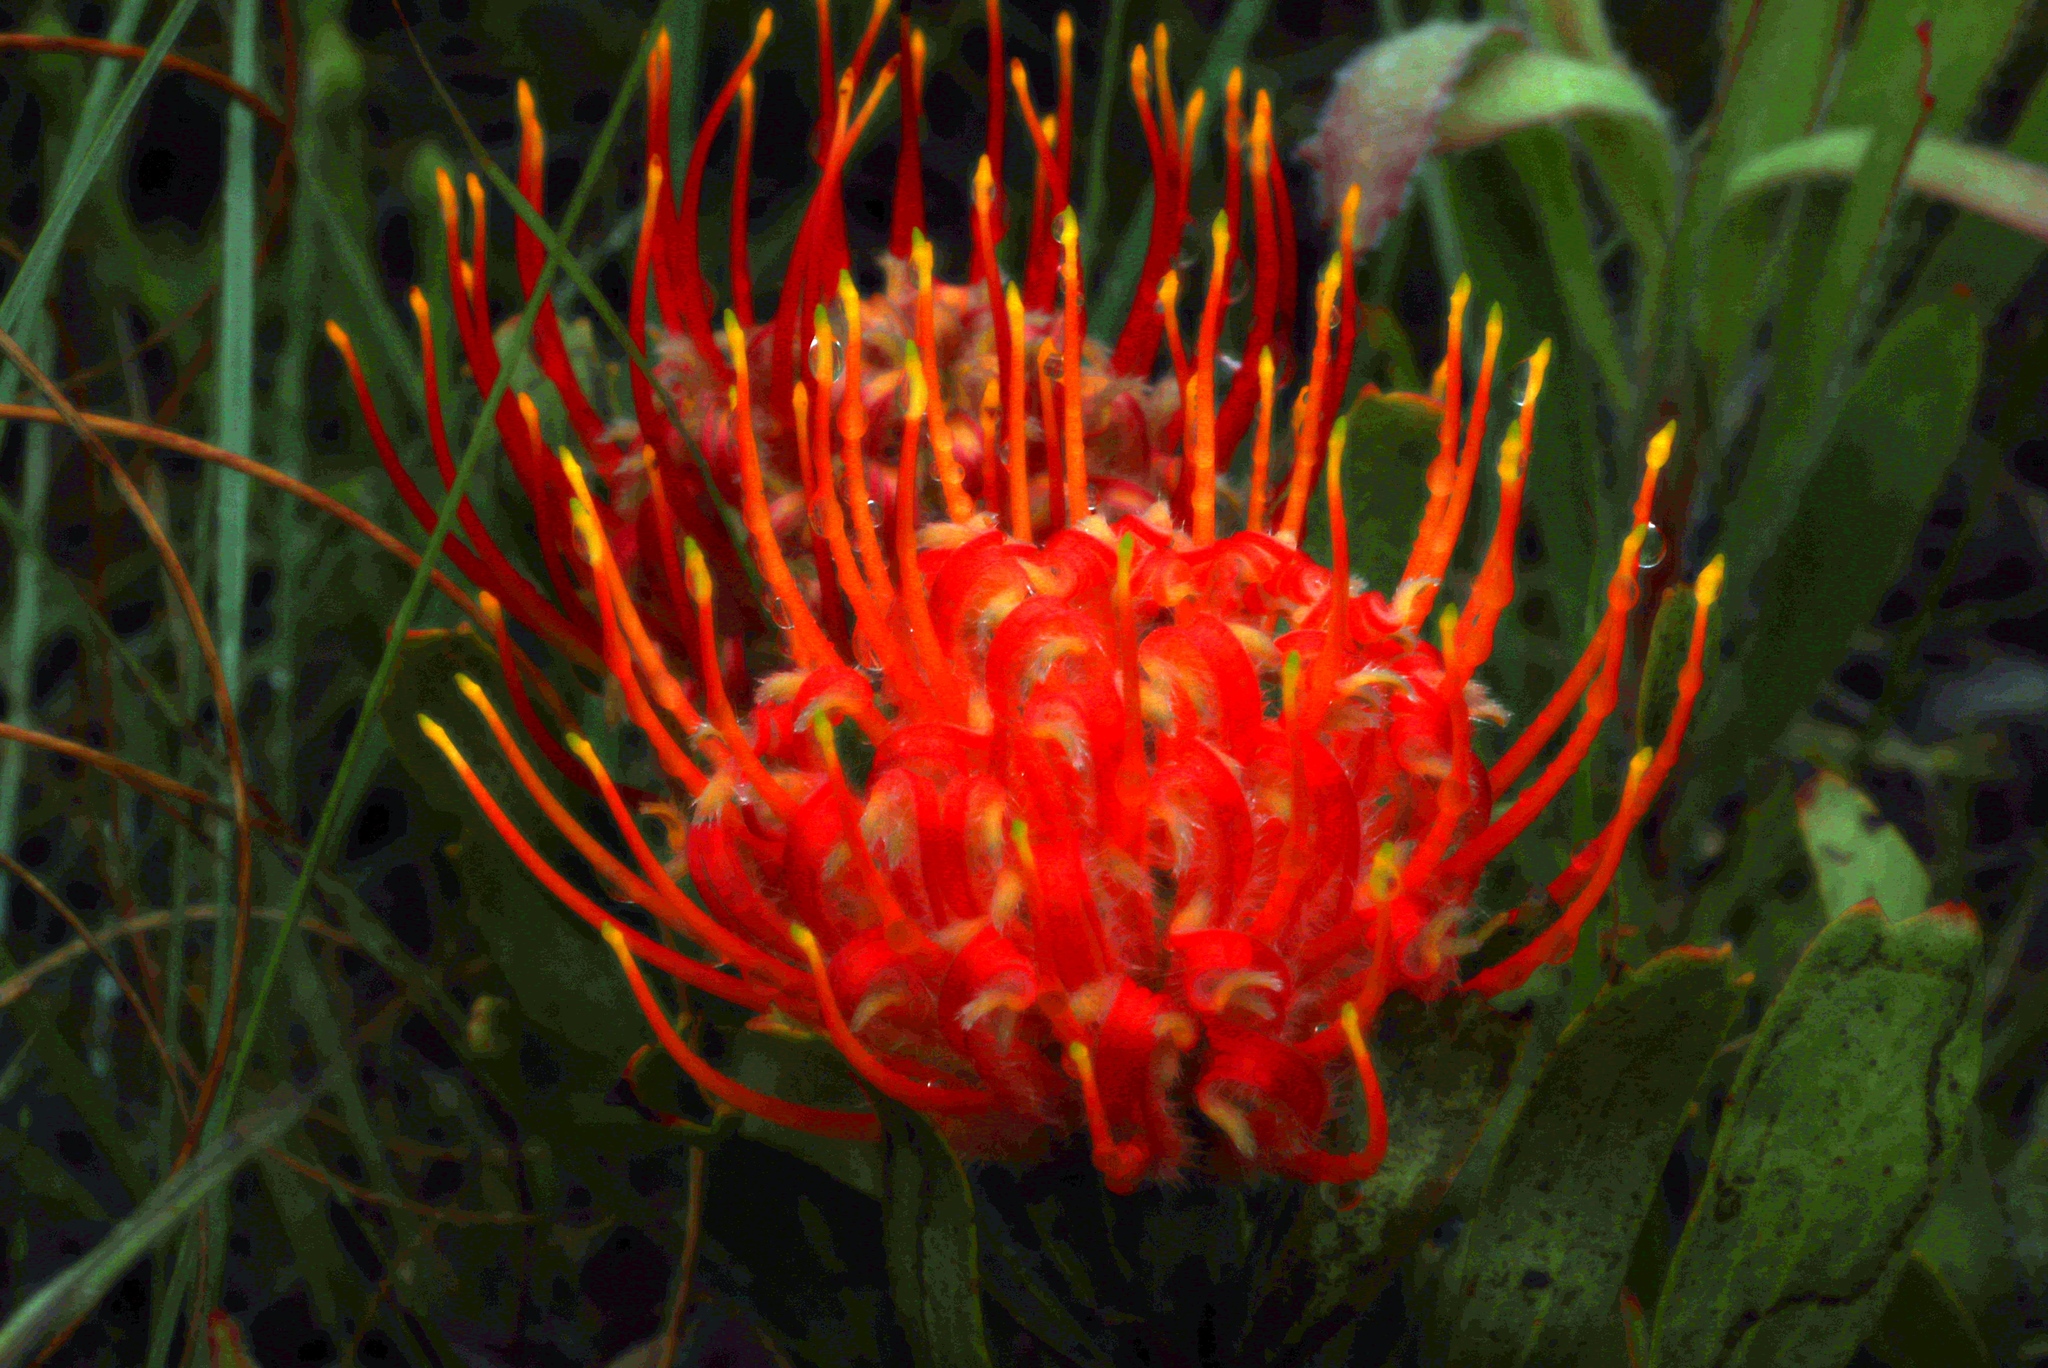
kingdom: Plantae
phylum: Tracheophyta
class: Magnoliopsida
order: Proteales
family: Proteaceae
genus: Leucospermum
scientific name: Leucospermum gerrardii
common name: Soapstone pincushion
